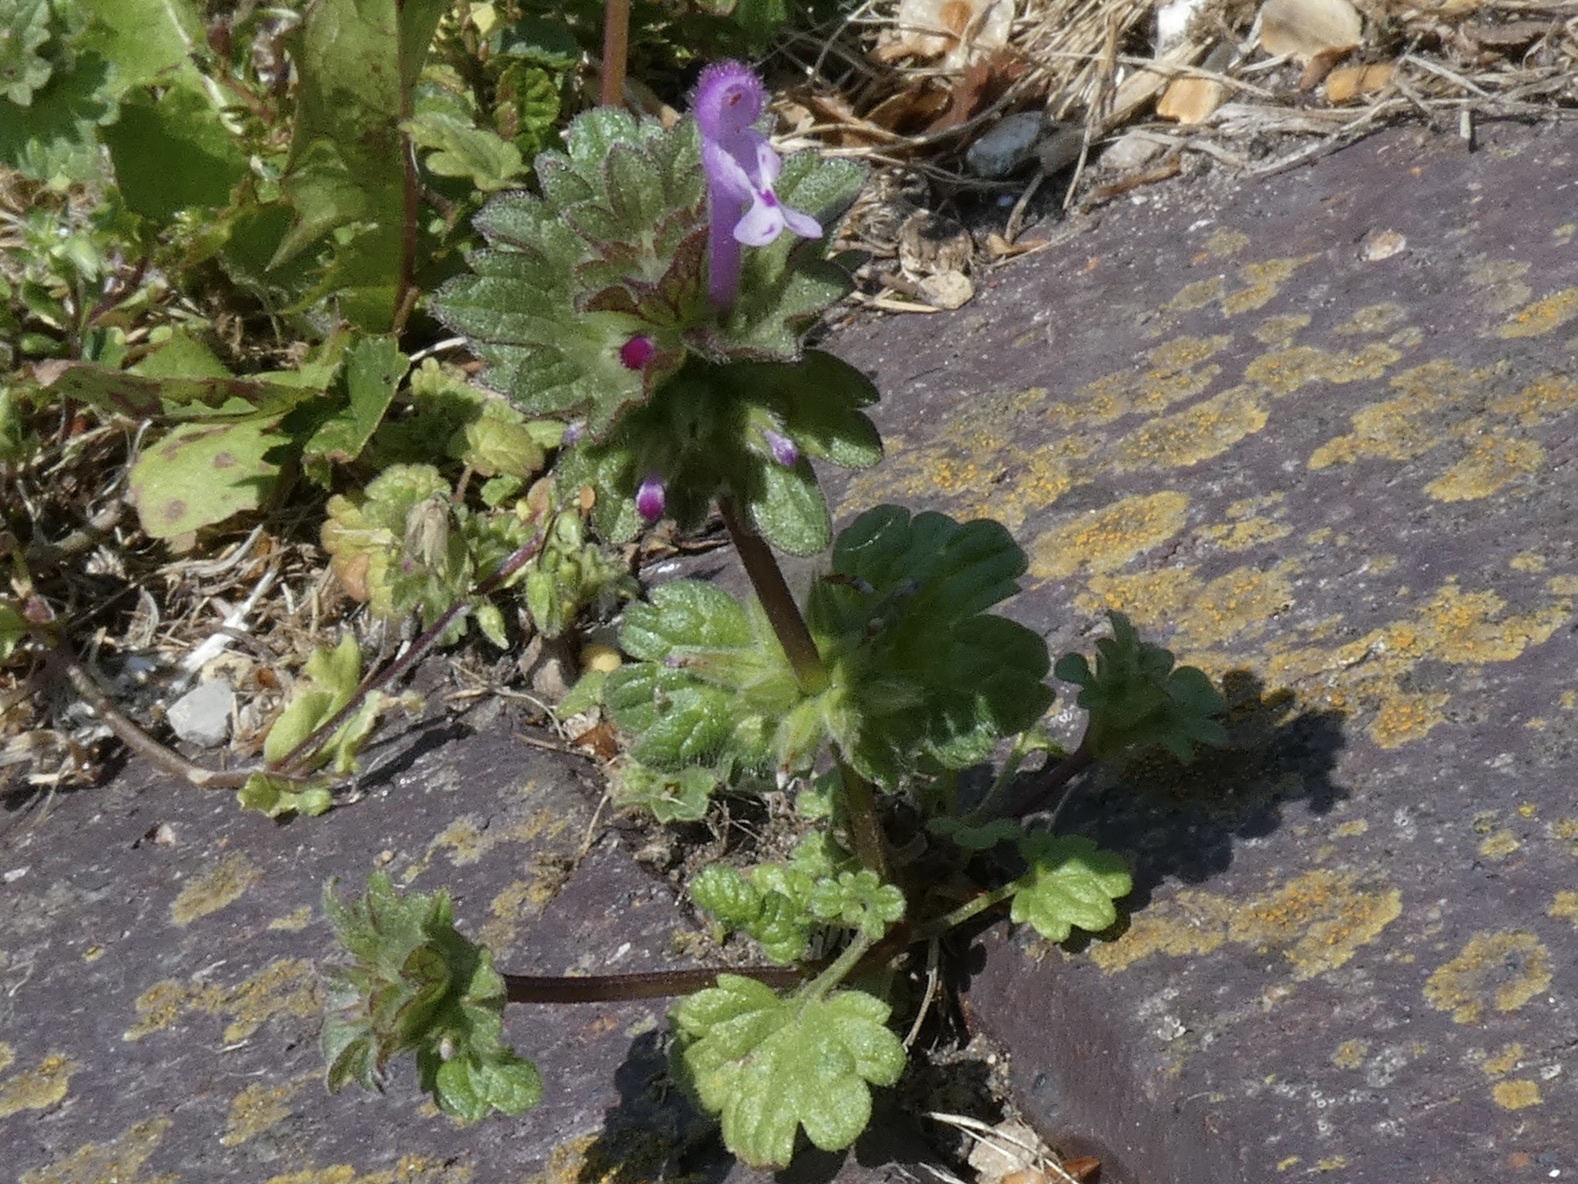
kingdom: Plantae
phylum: Tracheophyta
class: Magnoliopsida
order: Lamiales
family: Lamiaceae
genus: Lamium
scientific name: Lamium amplexicaule
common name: Henbit dead-nettle
